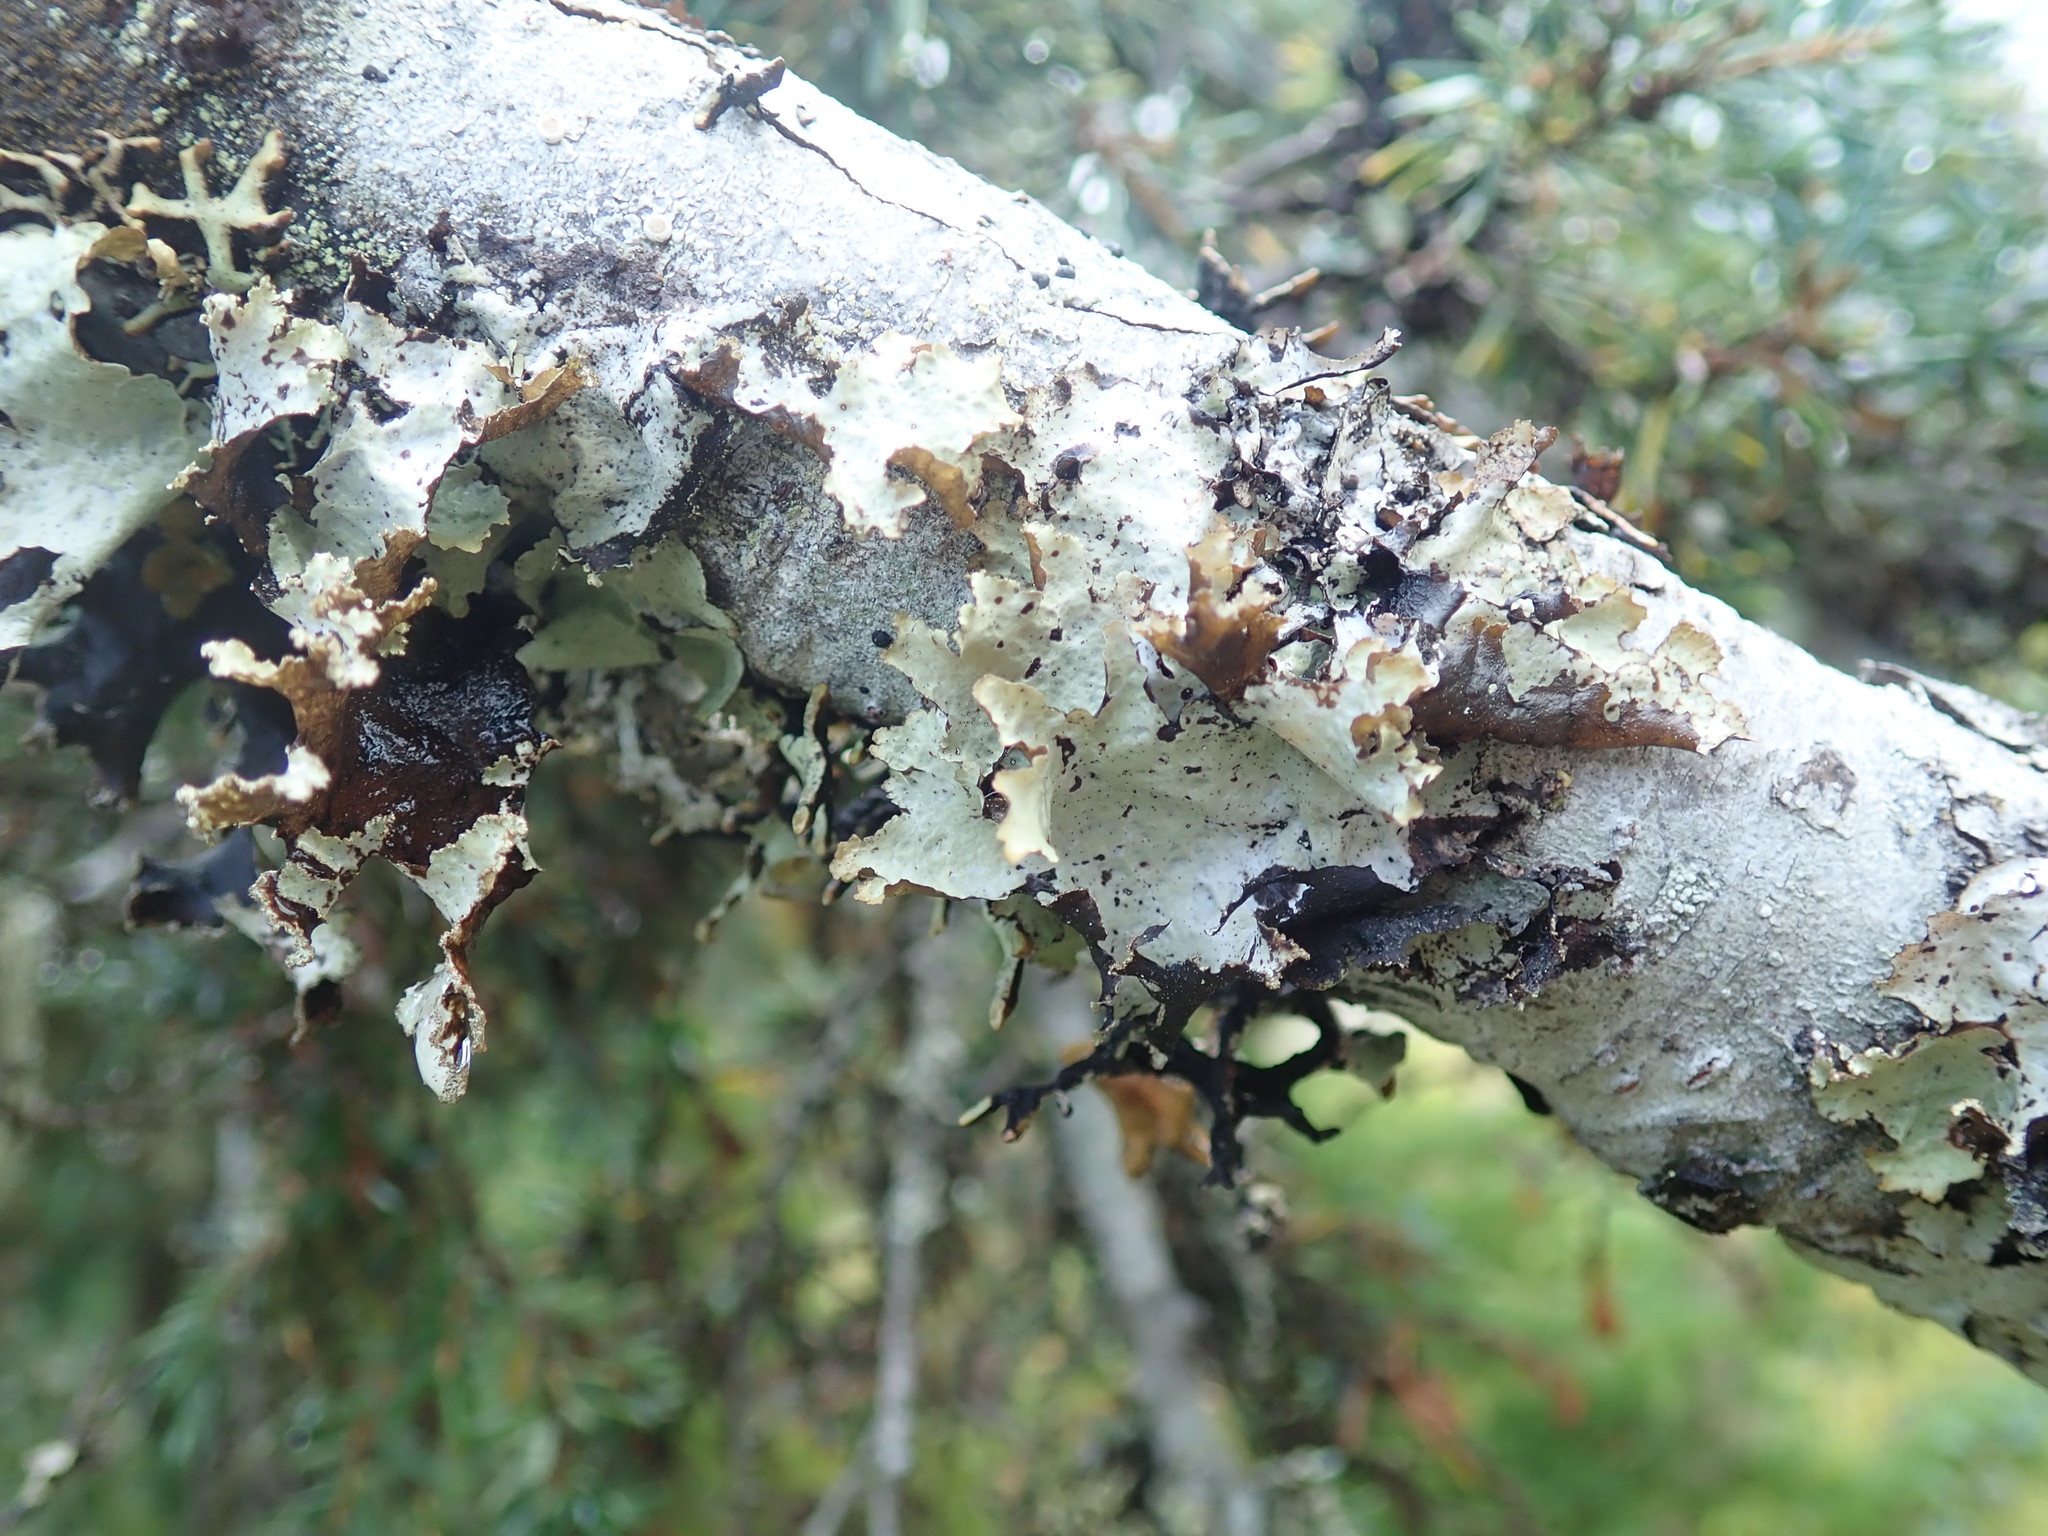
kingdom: Fungi
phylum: Ascomycota
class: Lecanoromycetes
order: Lecanorales
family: Parmeliaceae
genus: Platismatia
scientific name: Platismatia glauca
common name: Varied rag lichen
